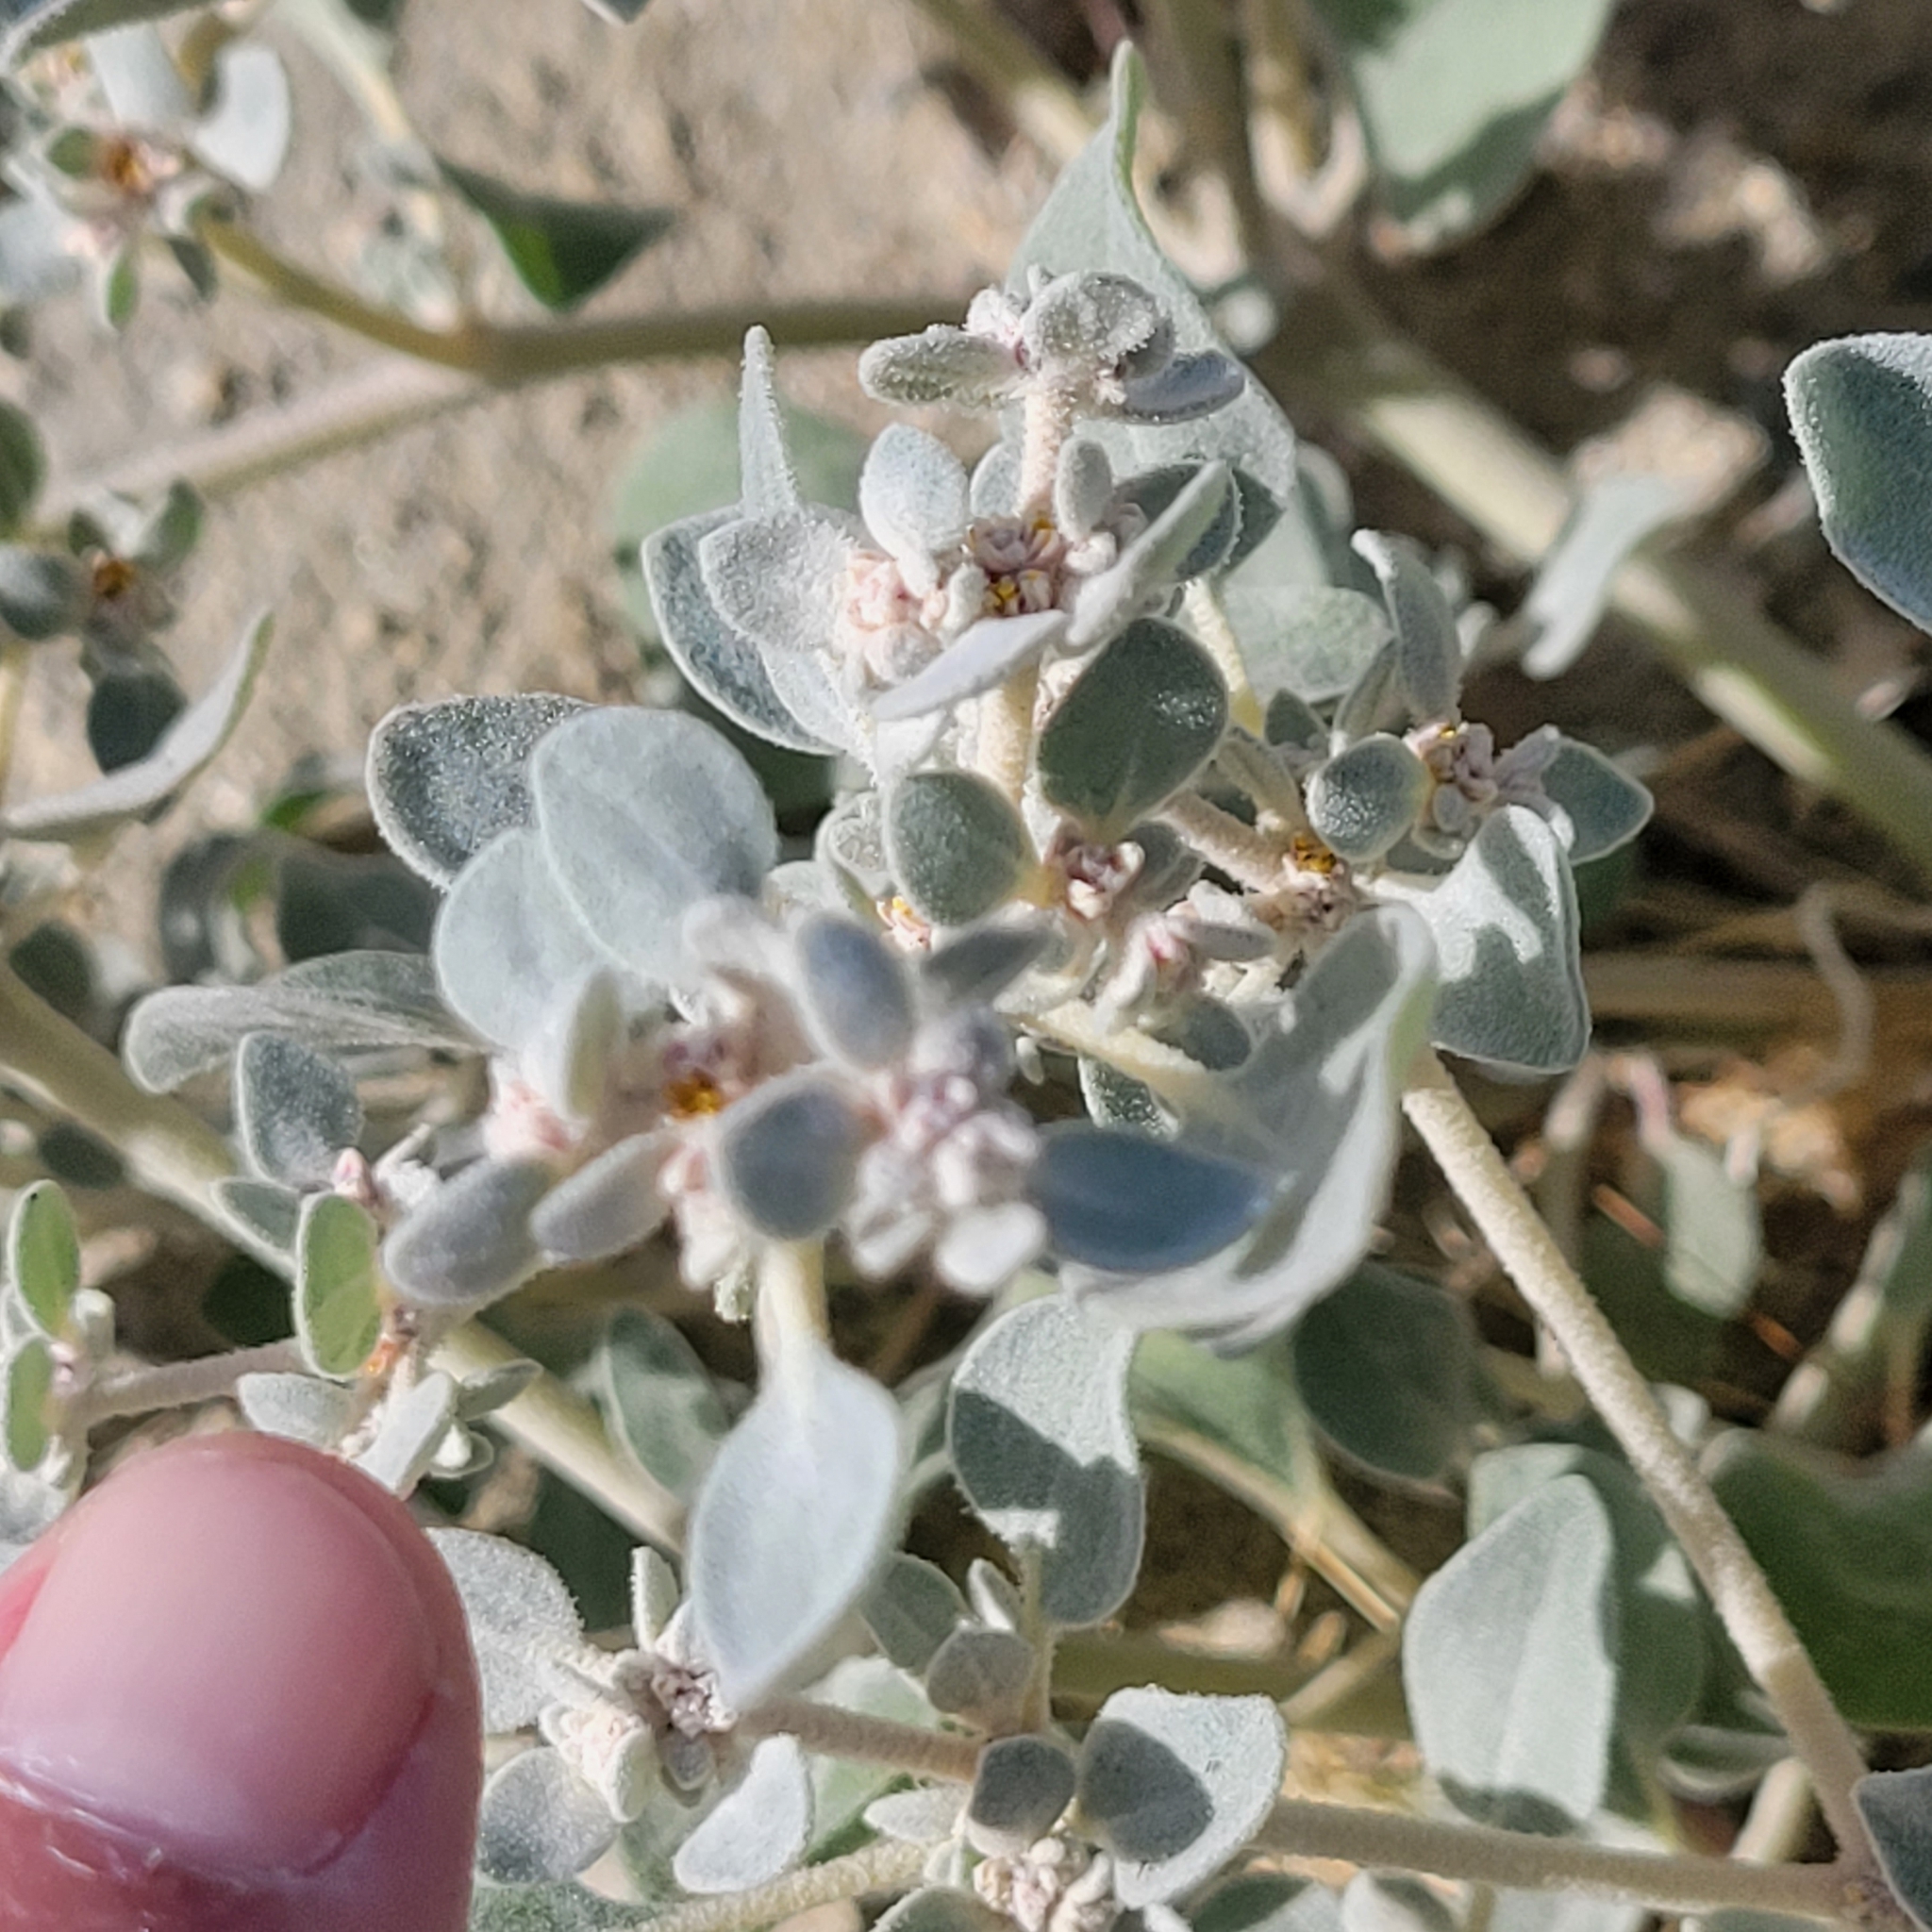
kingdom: Plantae
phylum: Tracheophyta
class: Magnoliopsida
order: Caryophyllales
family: Amaranthaceae
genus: Tidestromia
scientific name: Tidestromia suffruticosa
